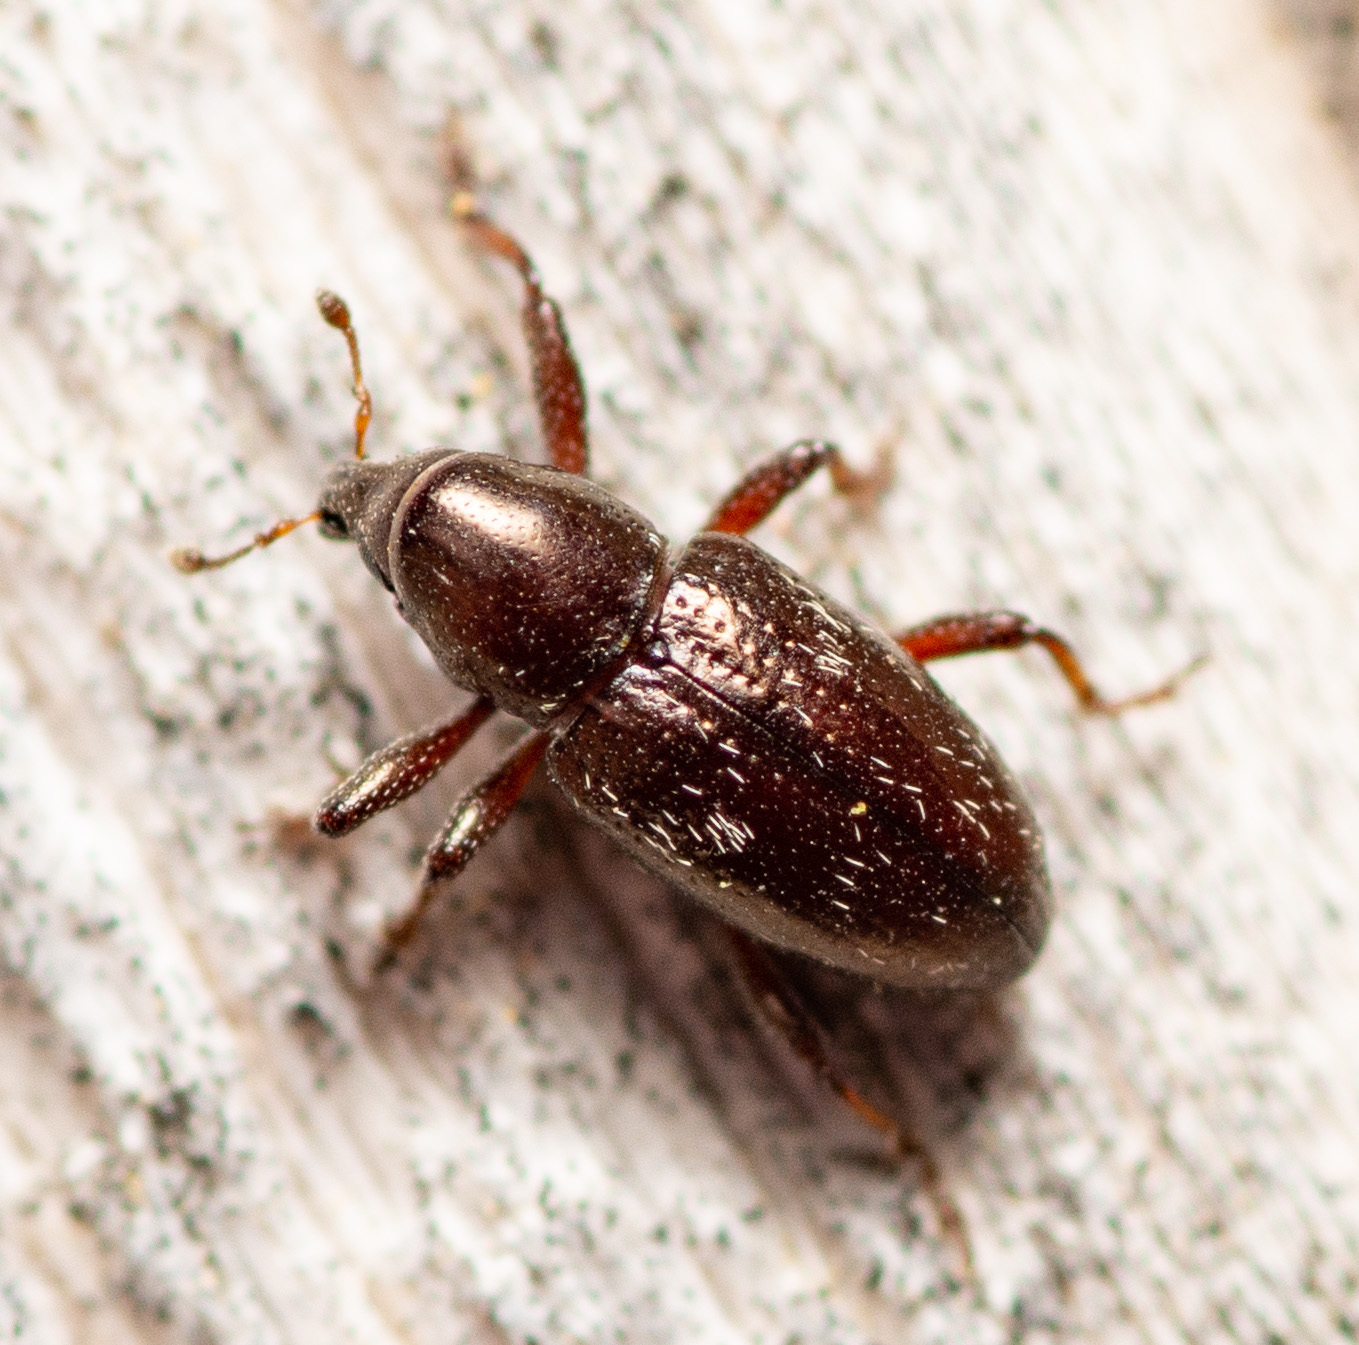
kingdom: Animalia
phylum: Arthropoda
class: Insecta
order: Coleoptera
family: Curculionidae
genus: Tyloderma
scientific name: Tyloderma subpubescens
